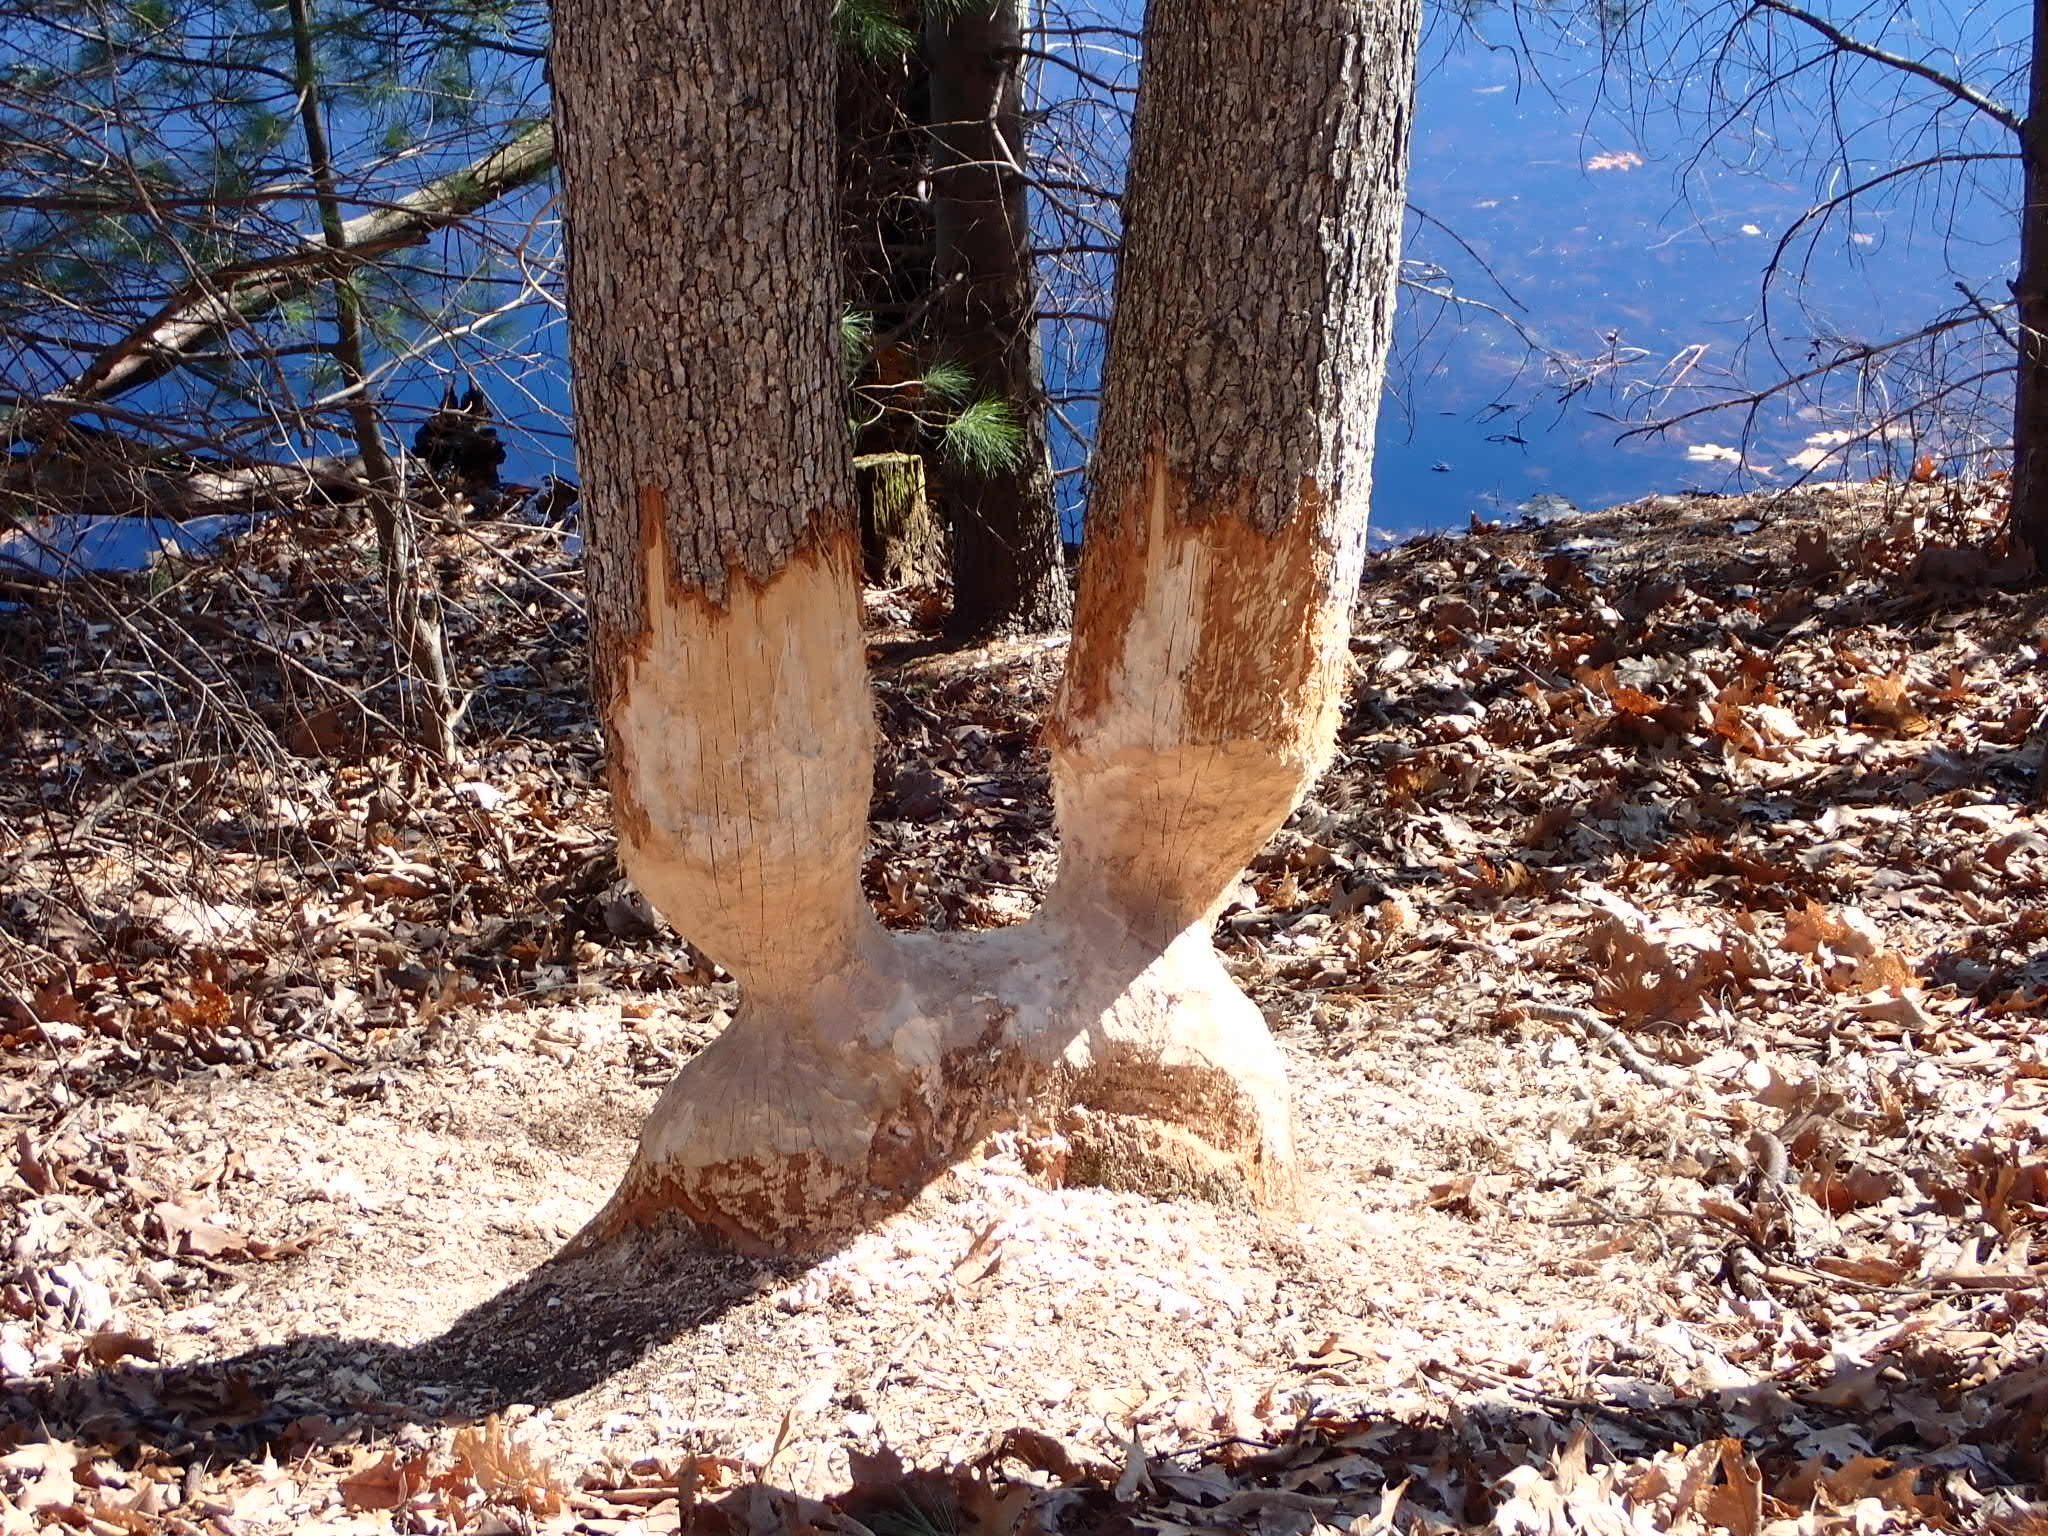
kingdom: Animalia
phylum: Chordata
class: Mammalia
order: Rodentia
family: Castoridae
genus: Castor
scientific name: Castor canadensis
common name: American beaver
